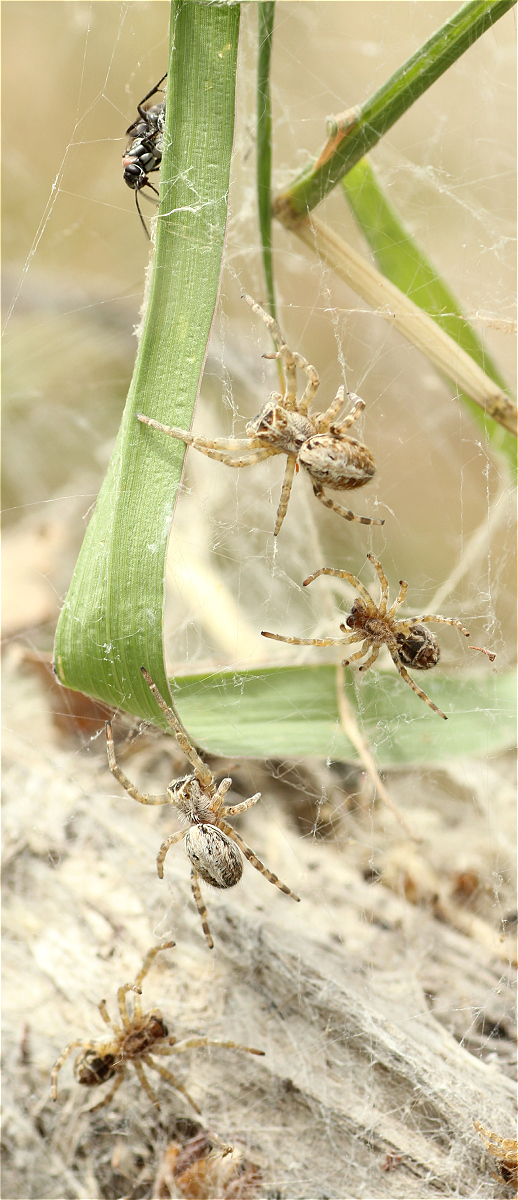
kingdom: Animalia
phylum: Arthropoda
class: Arachnida
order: Araneae
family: Eresidae
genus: Stegodyphus
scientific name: Stegodyphus dumicola
